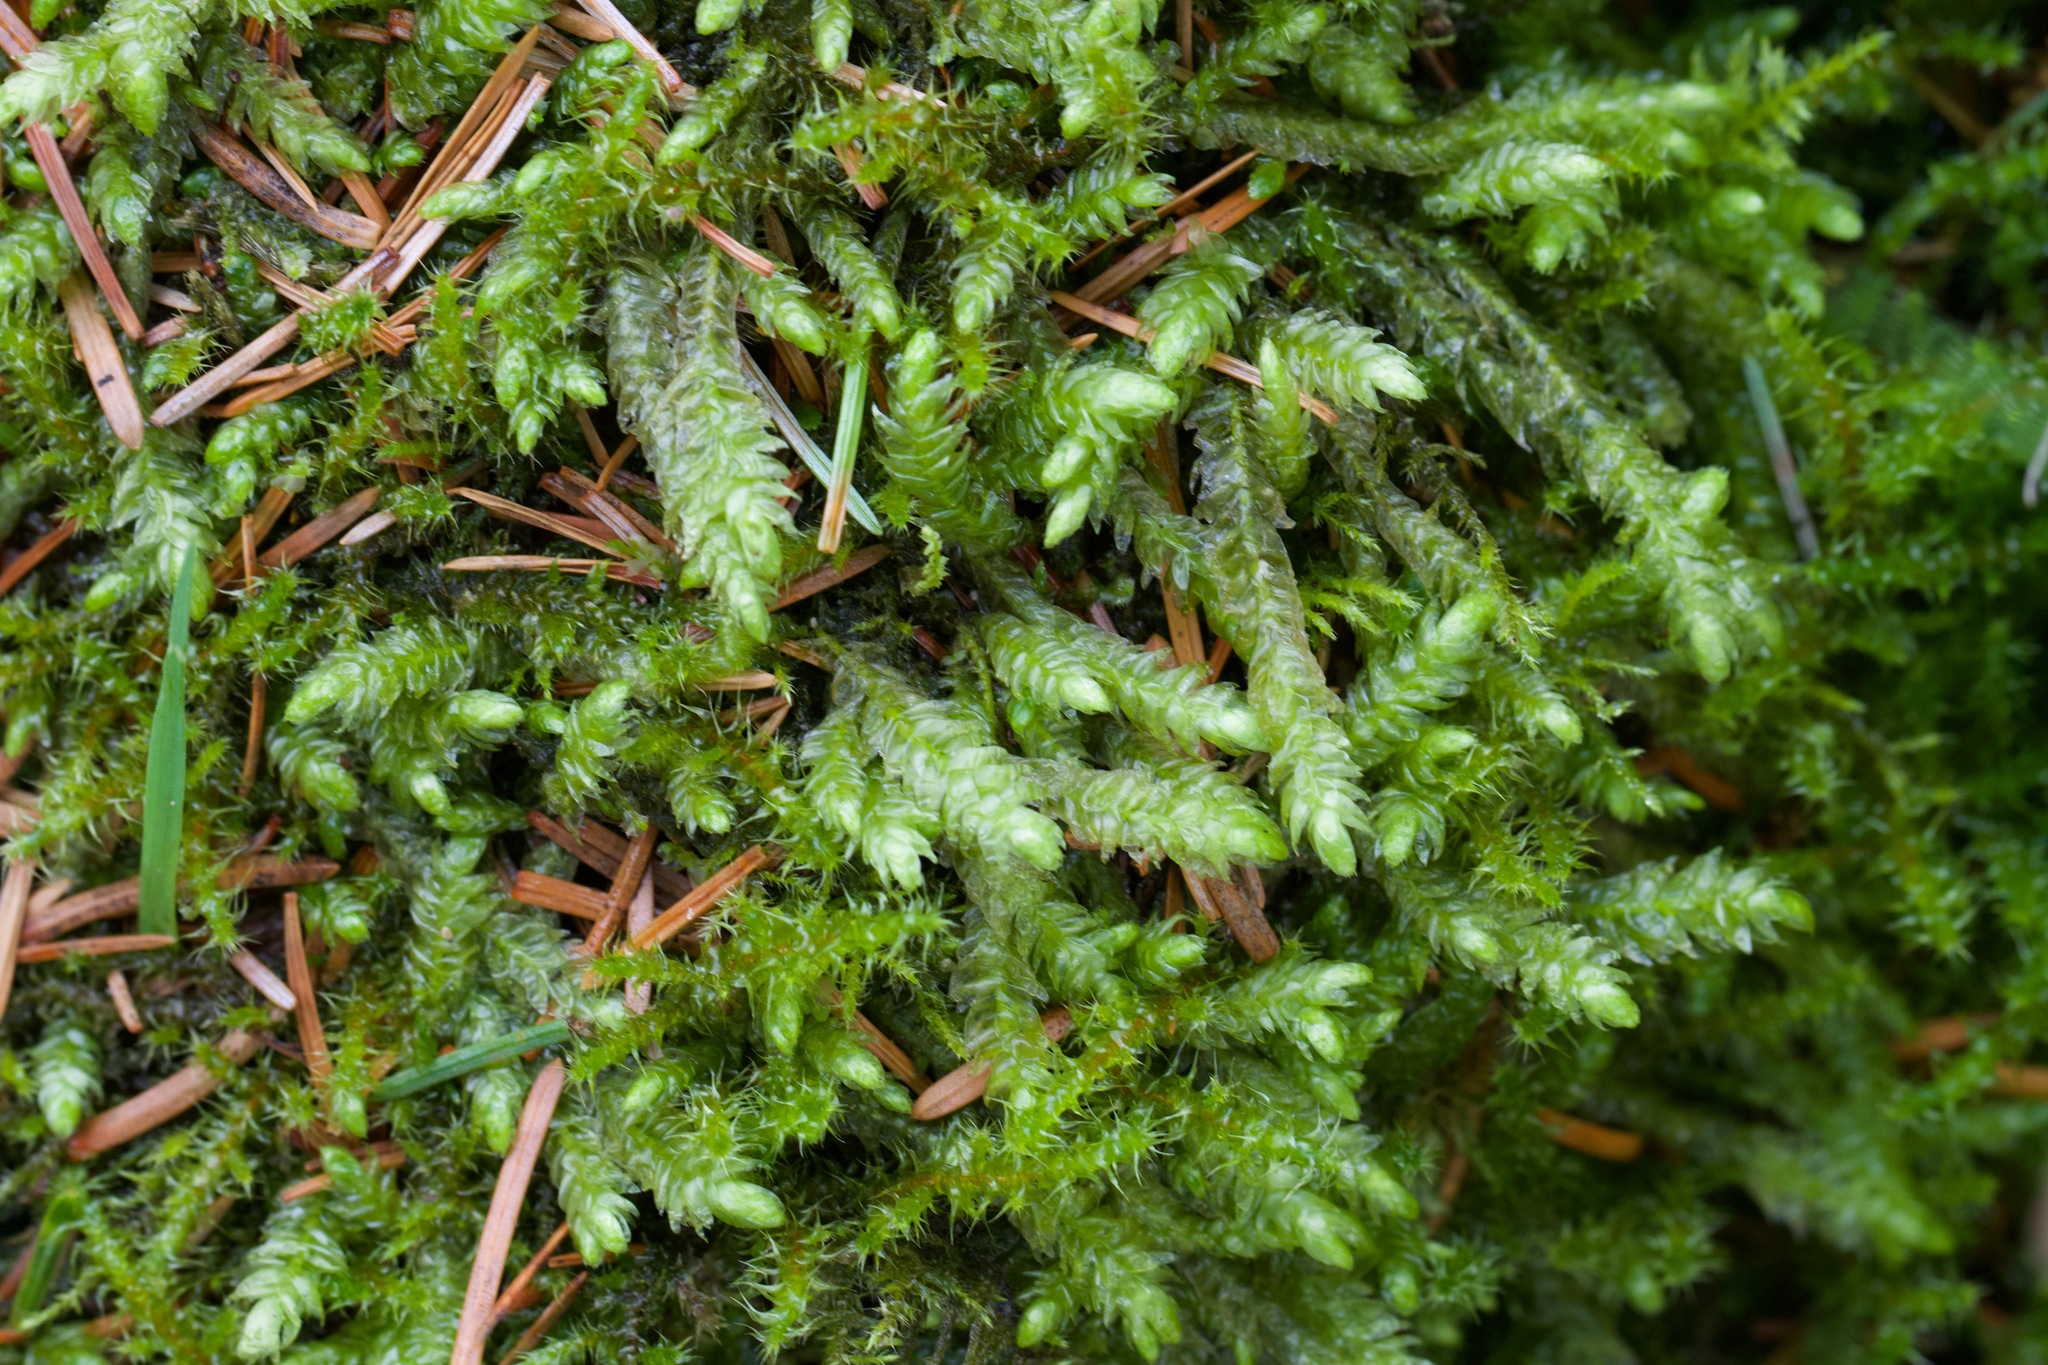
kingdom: Plantae
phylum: Bryophyta
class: Bryopsida
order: Hypnales
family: Plagiotheciaceae
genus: Plagiothecium
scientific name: Plagiothecium undulatum
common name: Waved silk-moss
